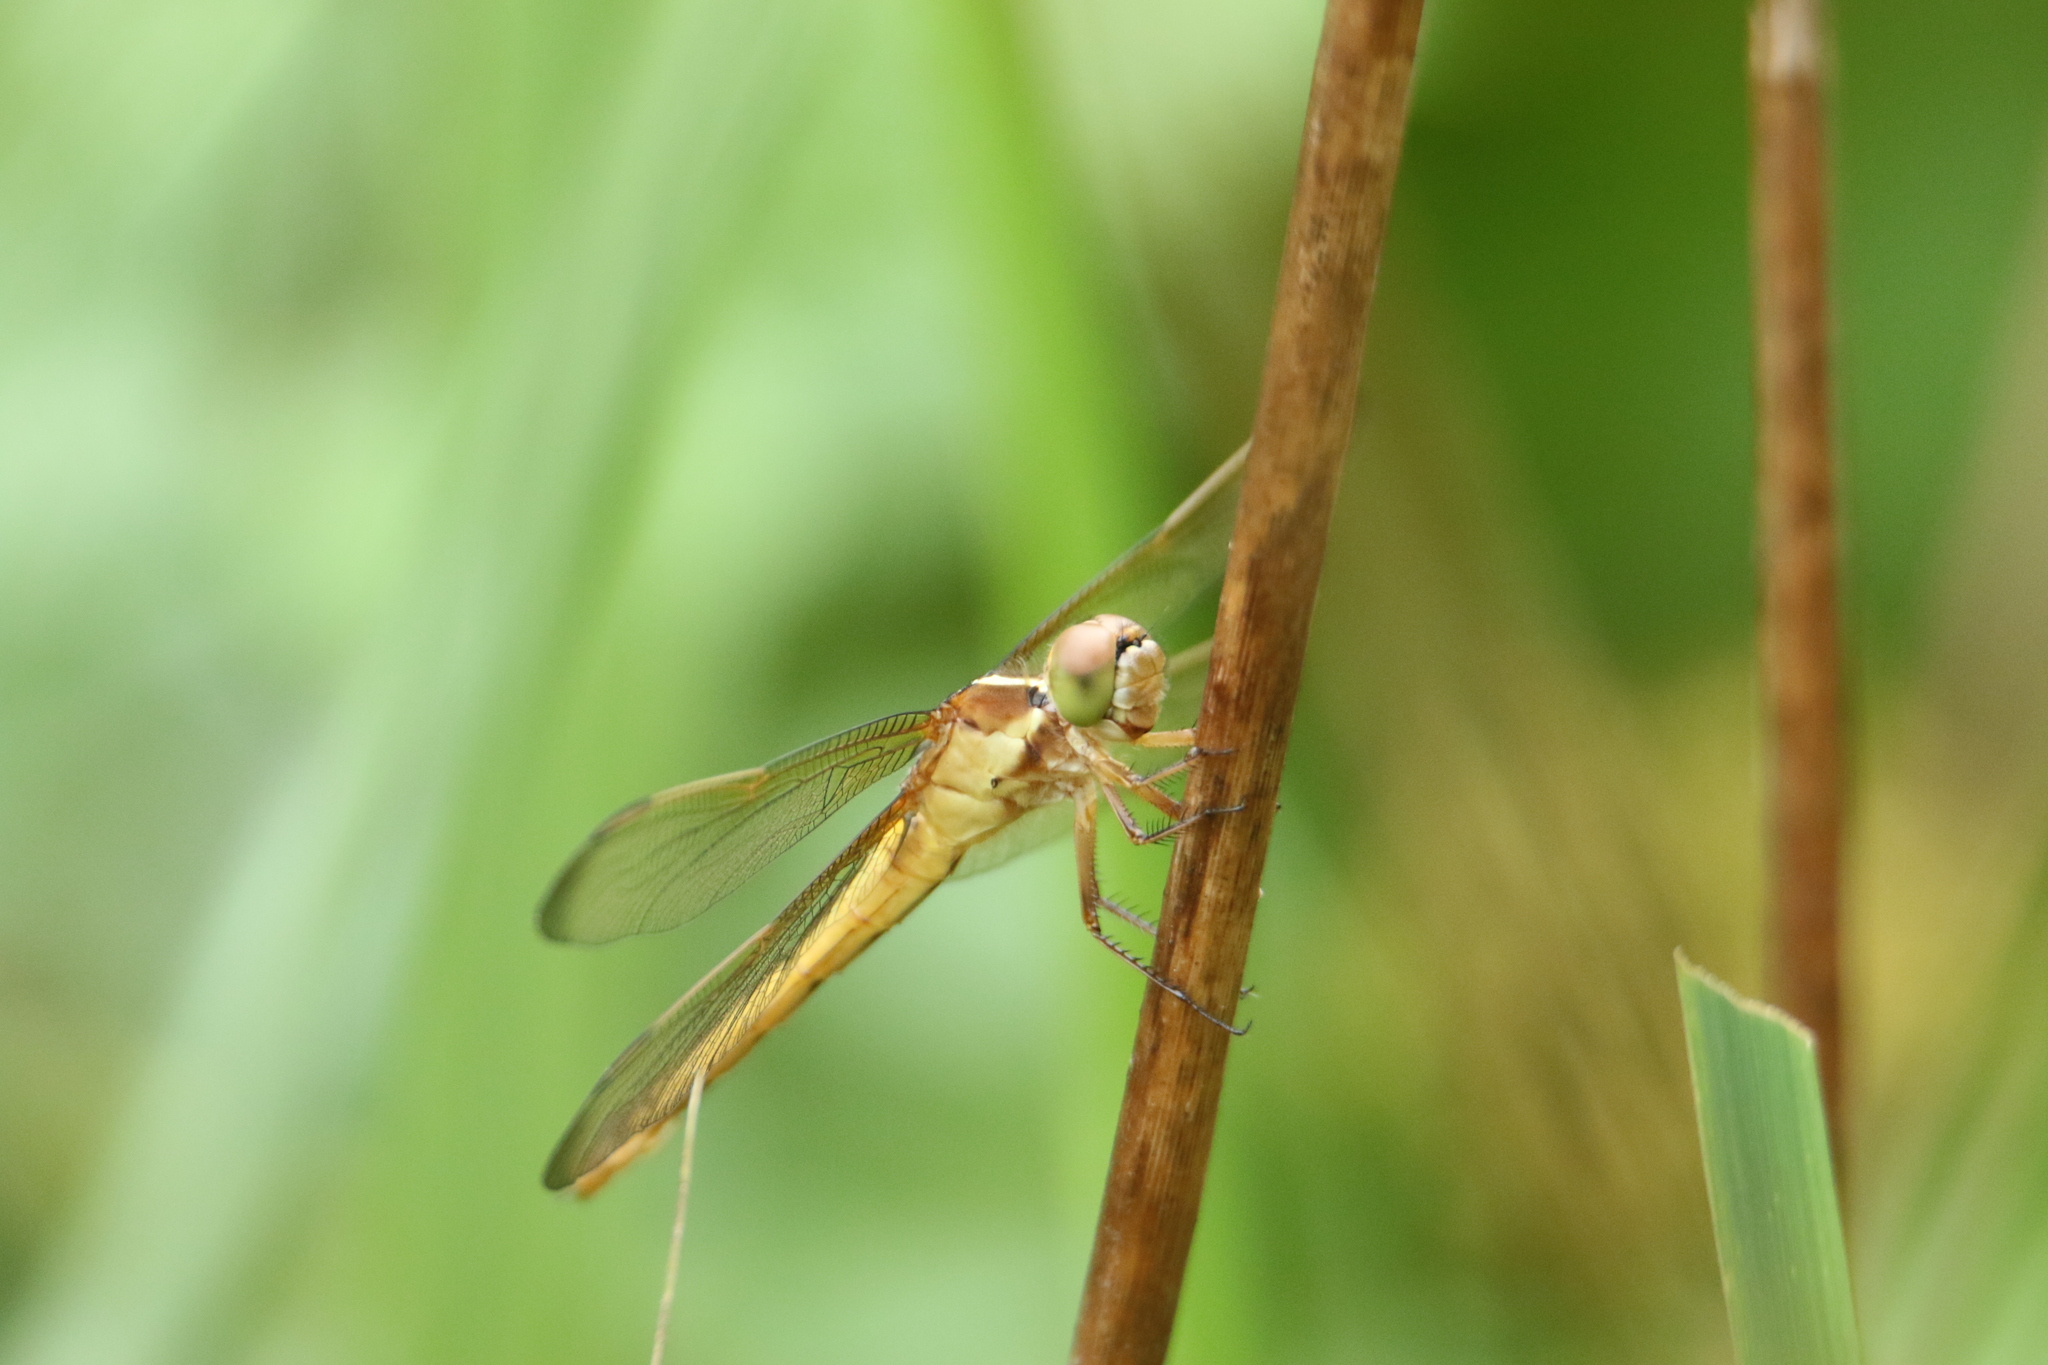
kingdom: Animalia
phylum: Arthropoda
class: Insecta
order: Odonata
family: Libellulidae
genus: Libellula
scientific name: Libellula needhami
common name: Needham's skimmer
